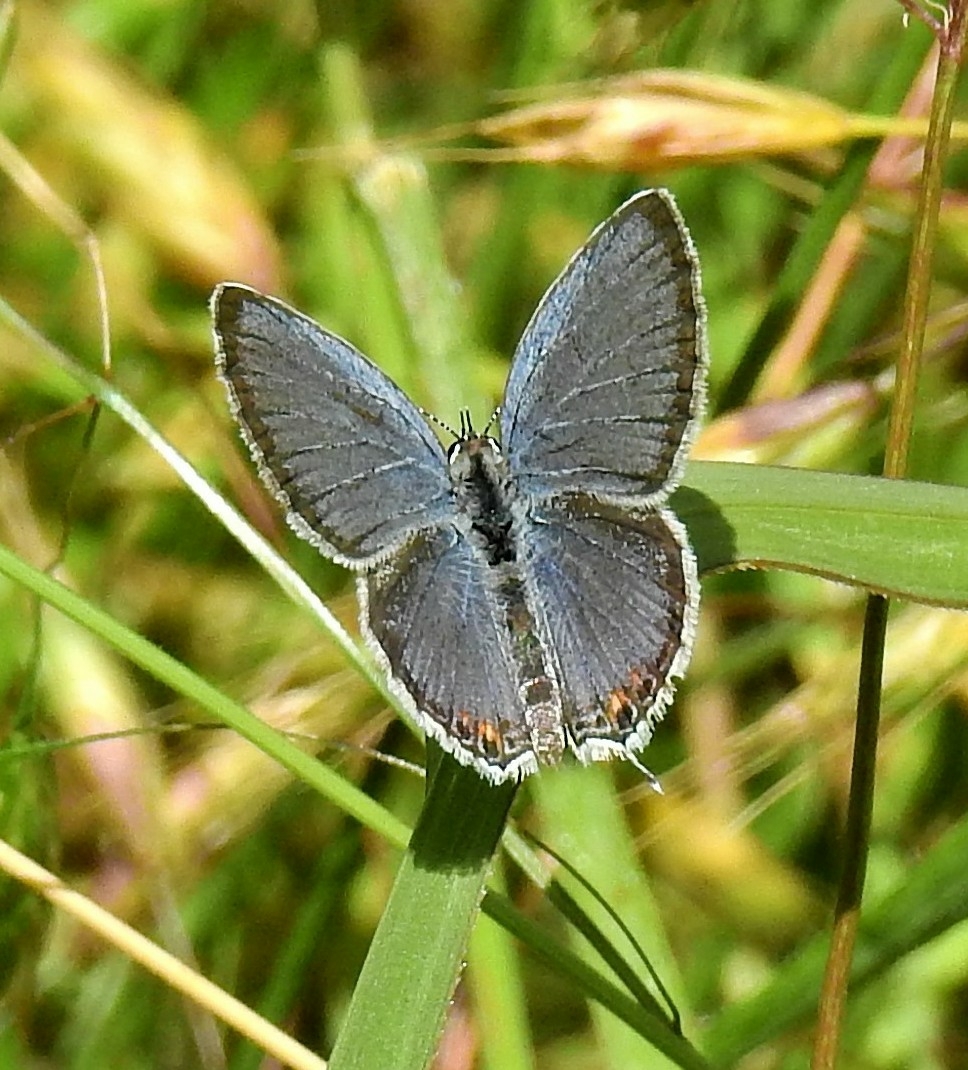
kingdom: Animalia
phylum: Arthropoda
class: Insecta
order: Lepidoptera
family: Lycaenidae
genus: Elkalyce
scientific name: Elkalyce comyntas
